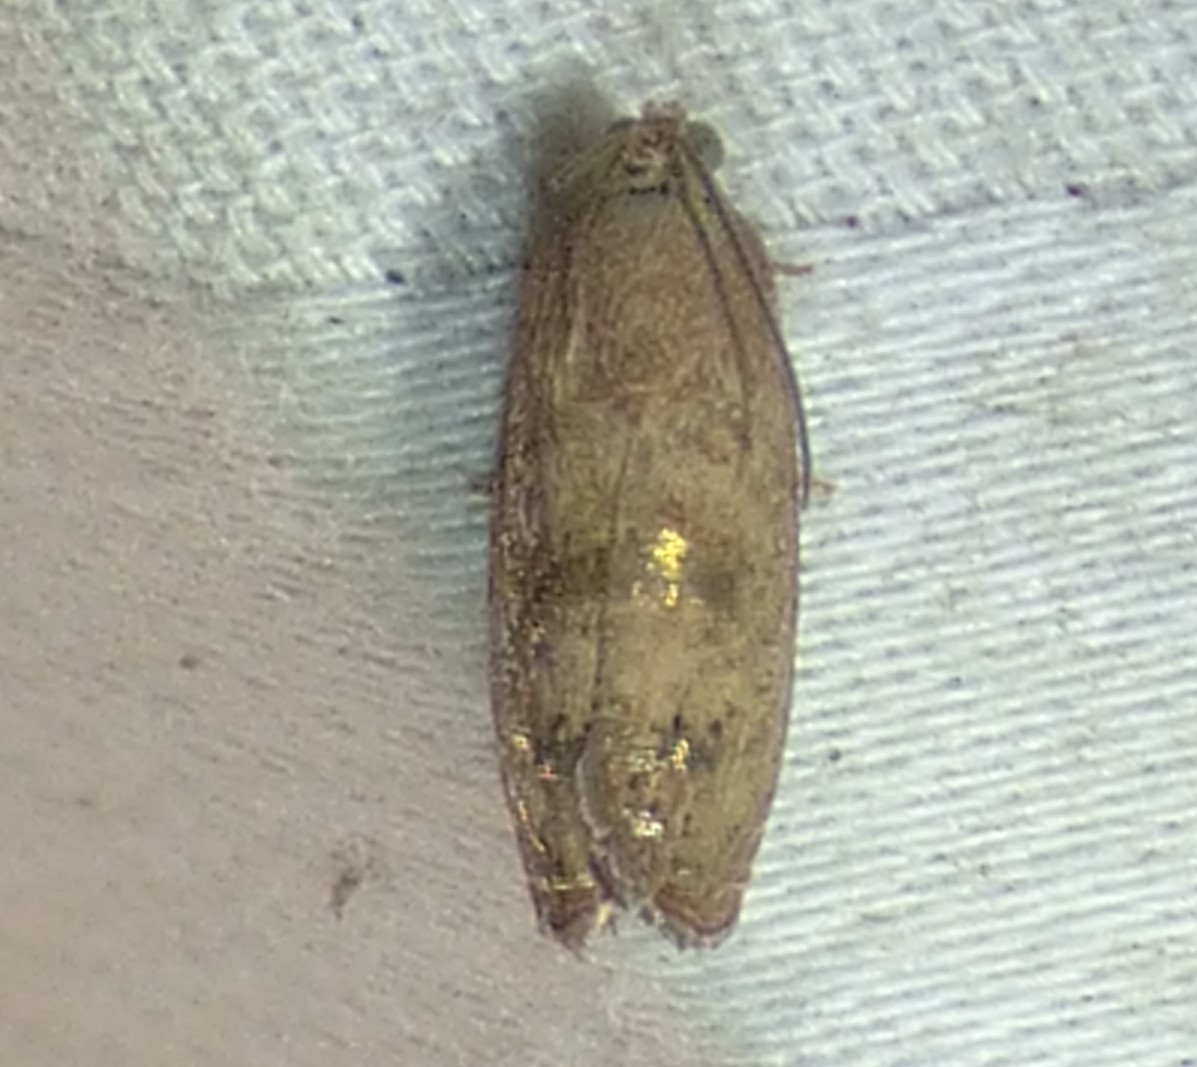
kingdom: Animalia
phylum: Arthropoda
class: Insecta
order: Lepidoptera
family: Tortricidae
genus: Cydia
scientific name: Cydia latiferreana
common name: Filbertworm moth
